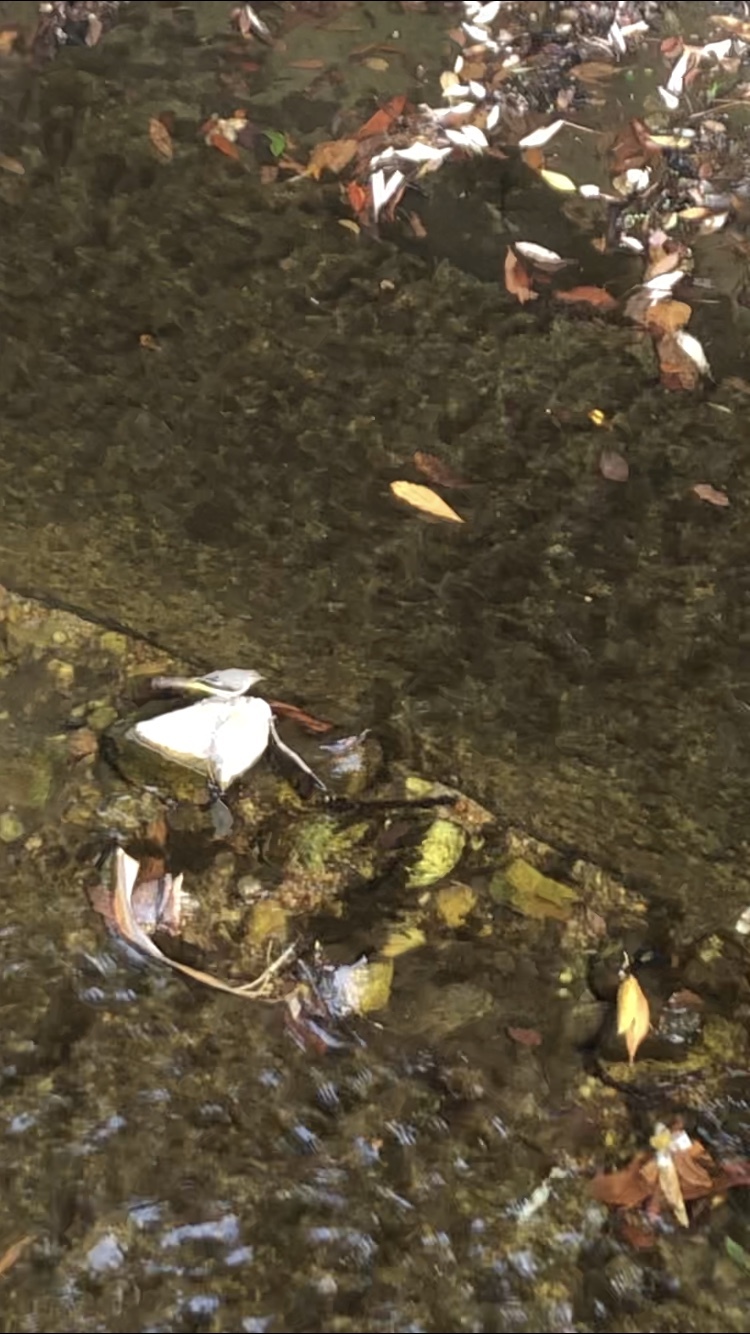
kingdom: Animalia
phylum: Chordata
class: Aves
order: Passeriformes
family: Motacillidae
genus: Motacilla
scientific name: Motacilla cinerea
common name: Grey wagtail
